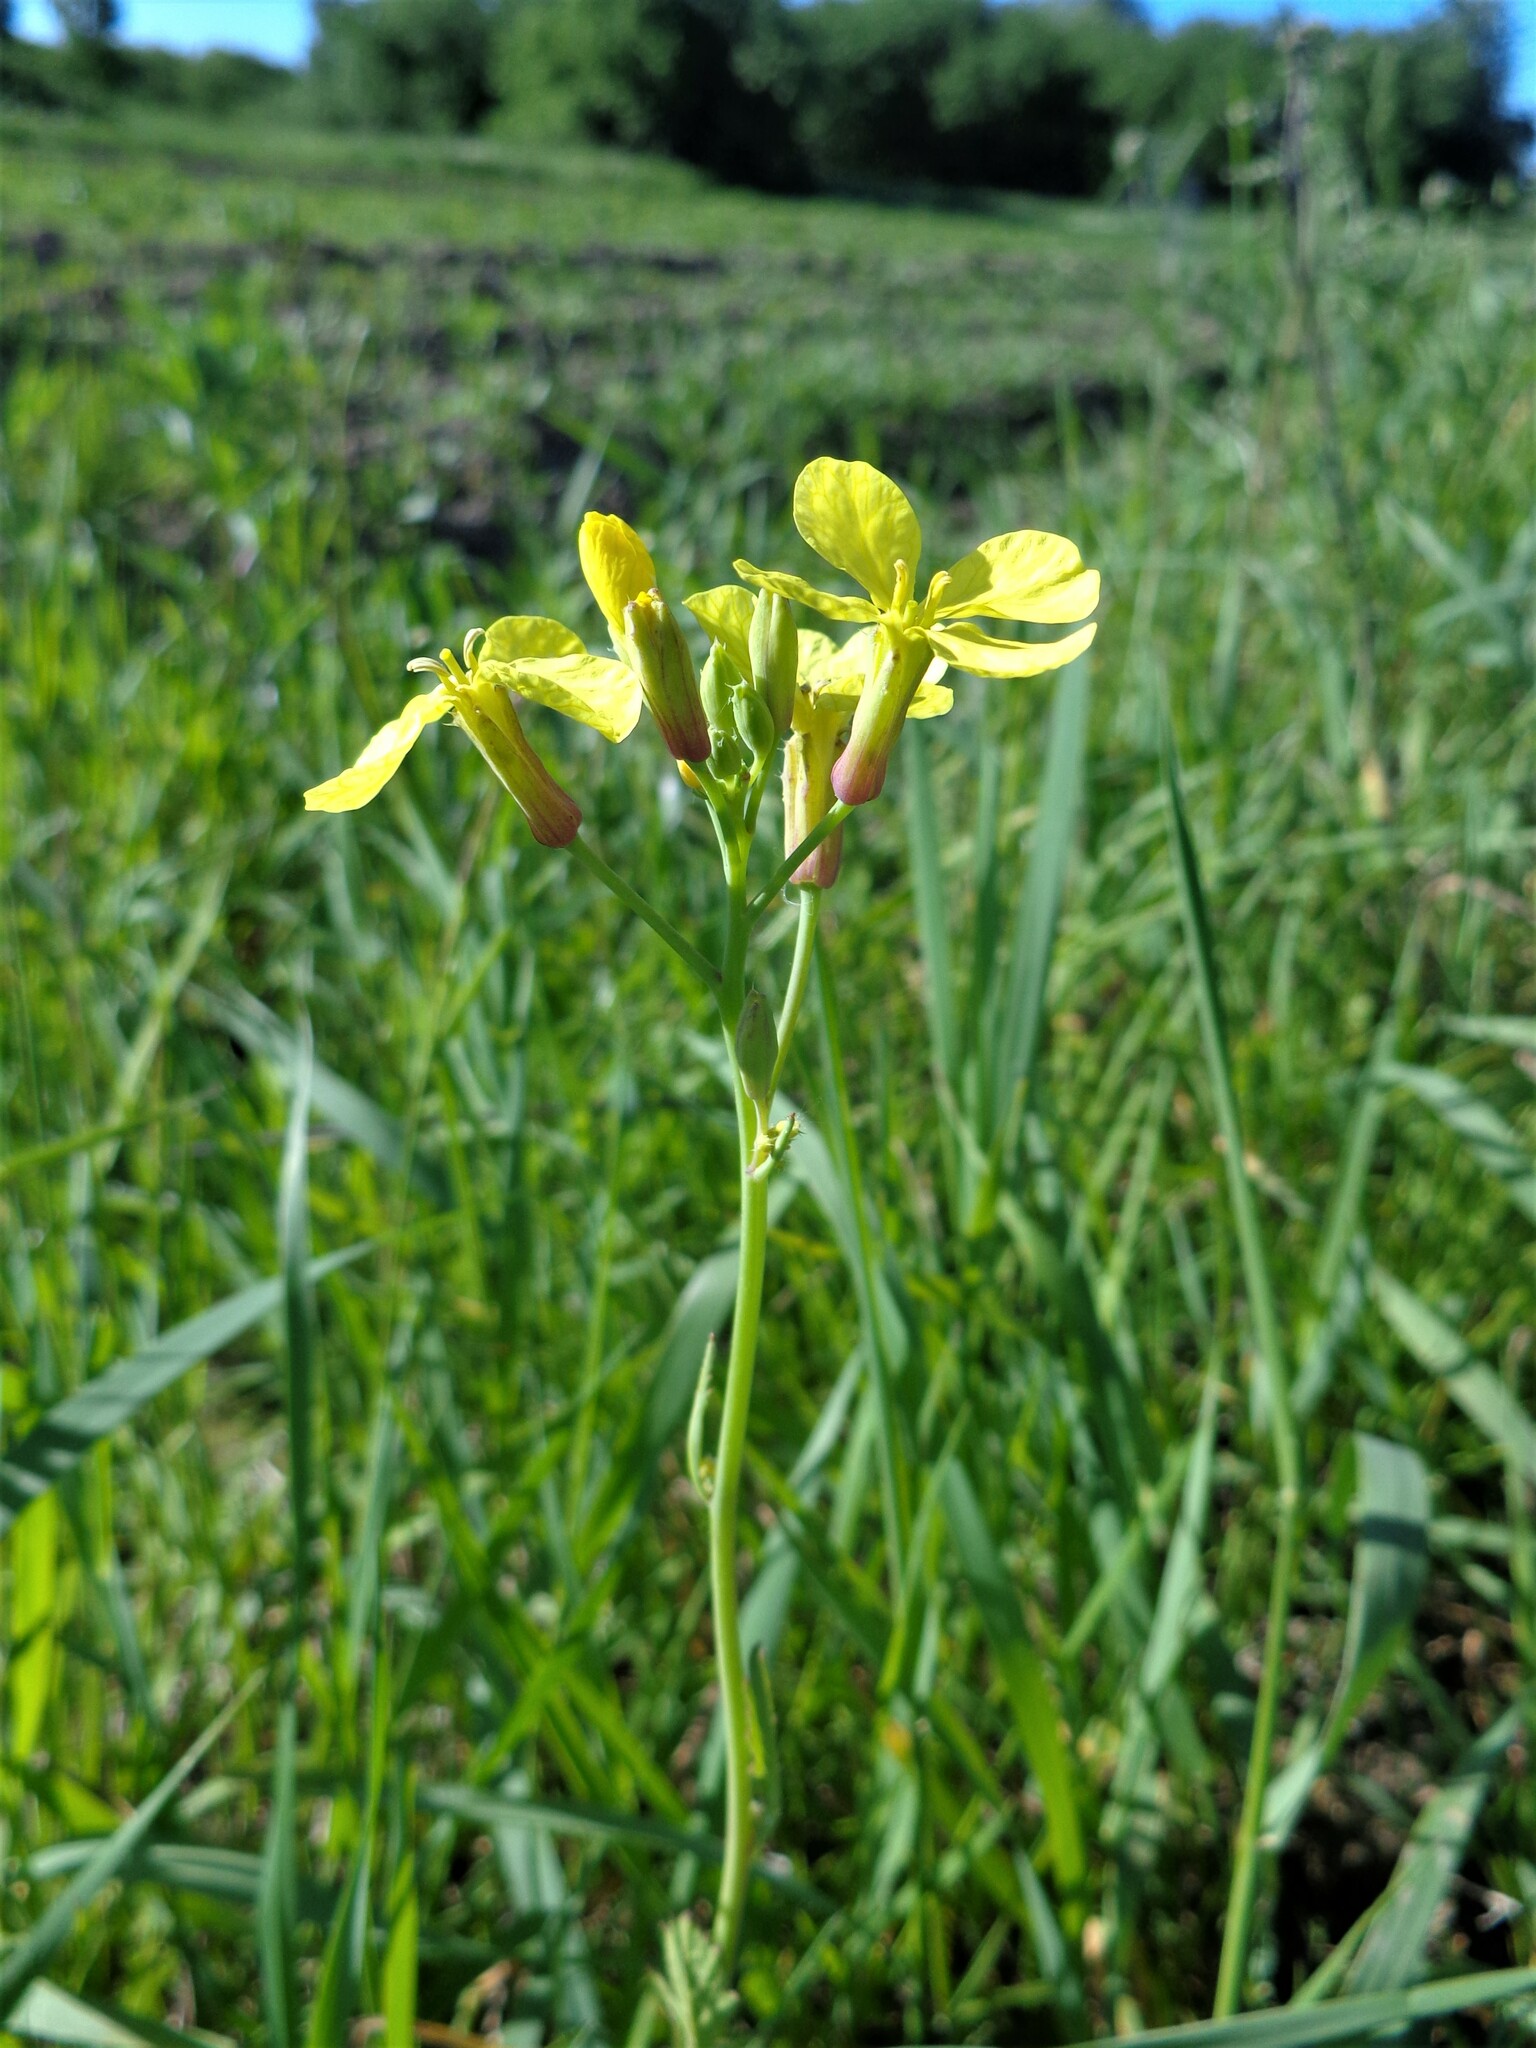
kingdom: Plantae
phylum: Tracheophyta
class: Magnoliopsida
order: Brassicales
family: Brassicaceae
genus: Raphanus
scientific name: Raphanus raphanistrum
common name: Wild radish
